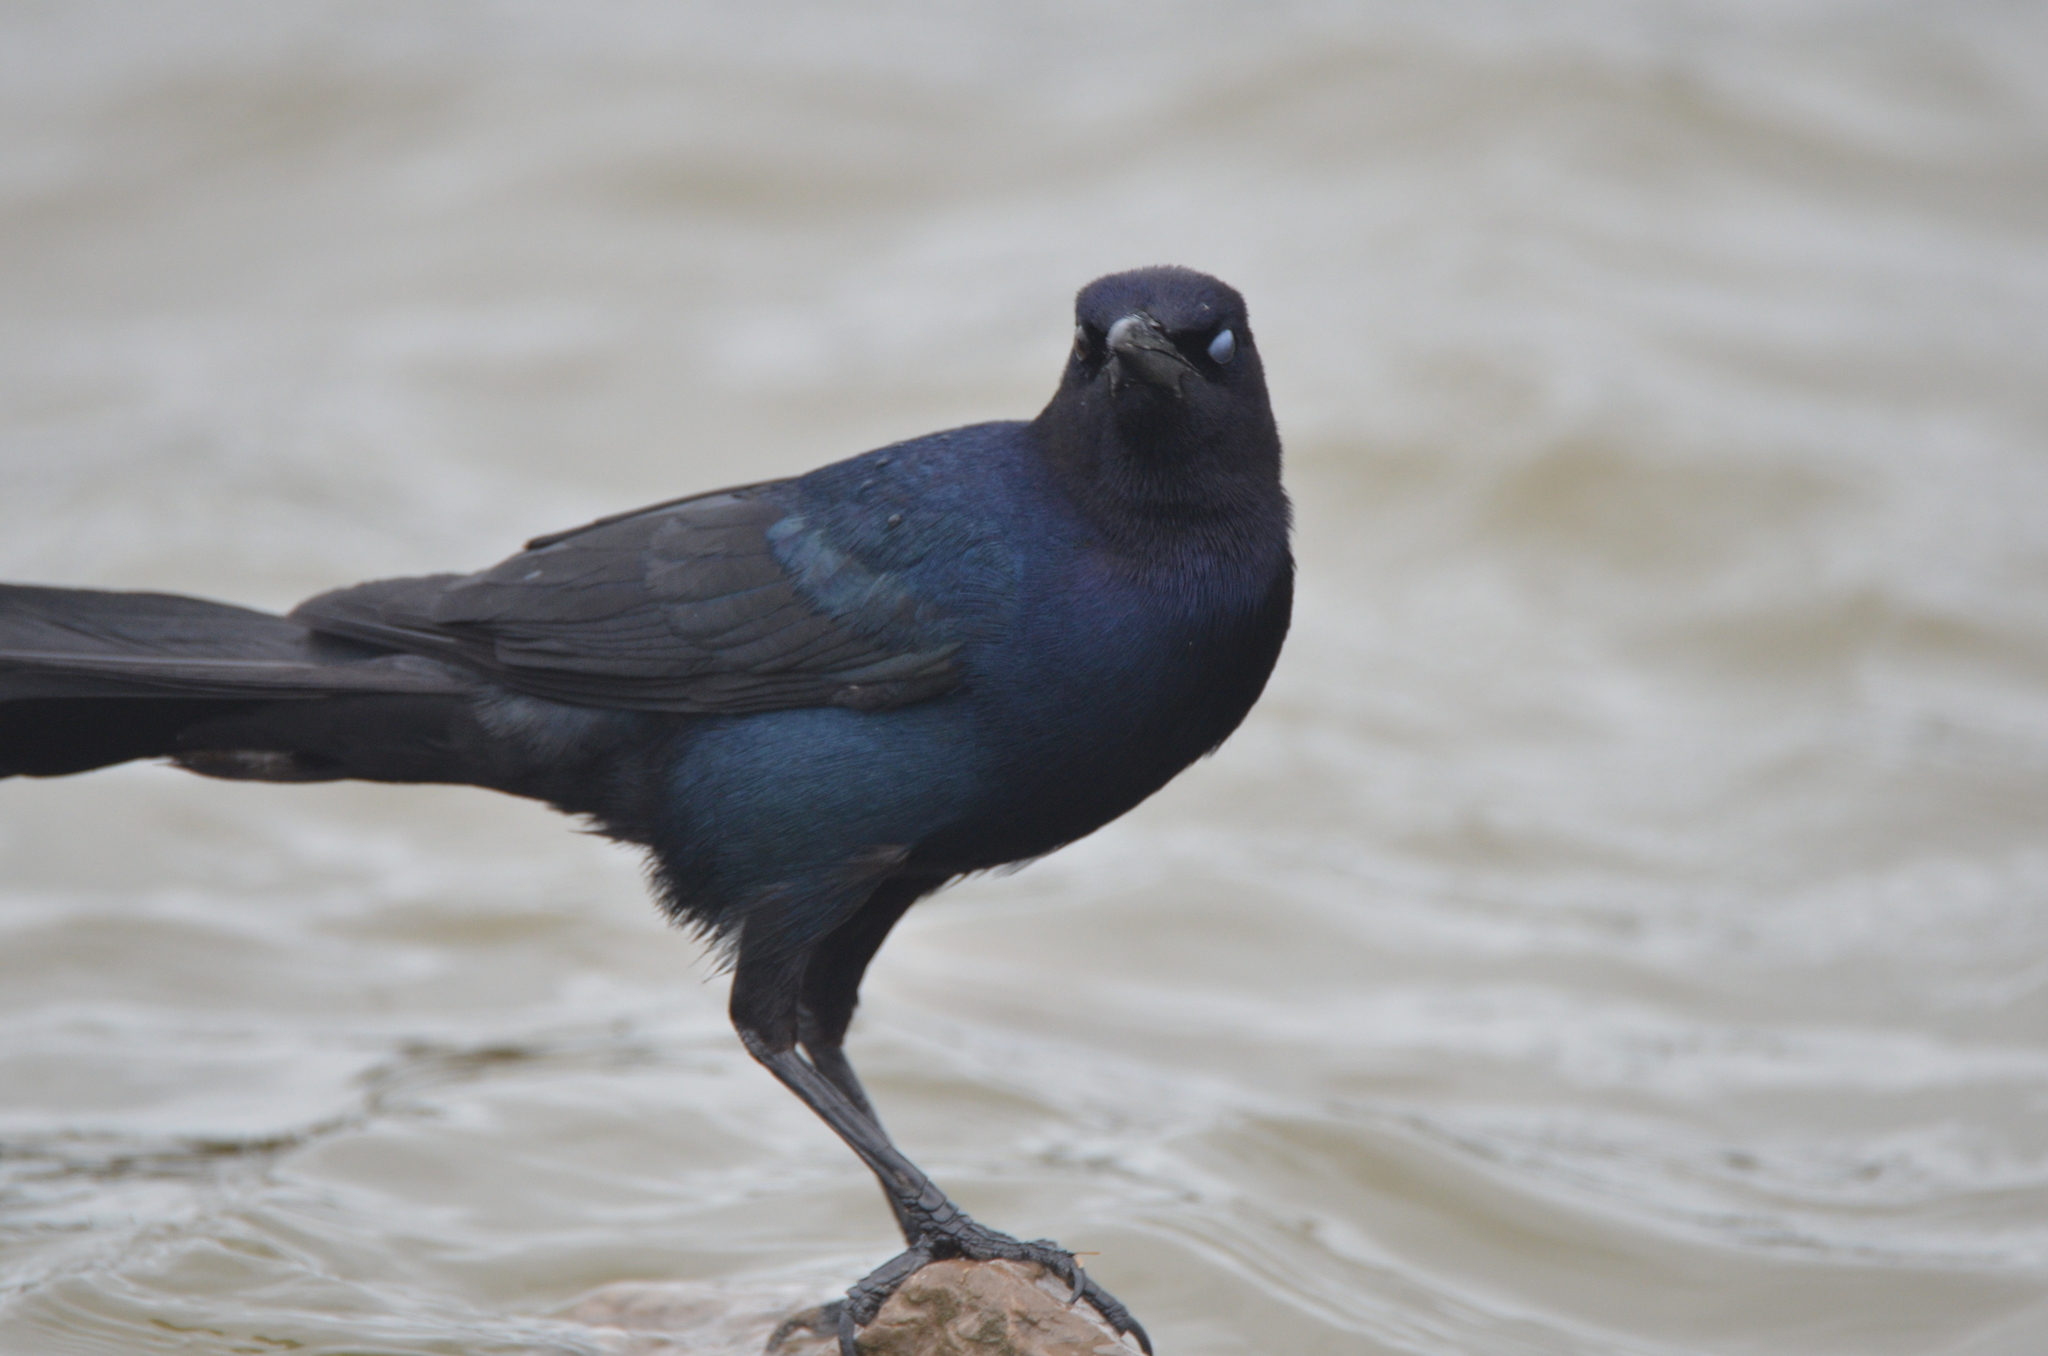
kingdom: Animalia
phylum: Chordata
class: Aves
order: Passeriformes
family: Icteridae
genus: Quiscalus
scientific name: Quiscalus major
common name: Boat-tailed grackle
